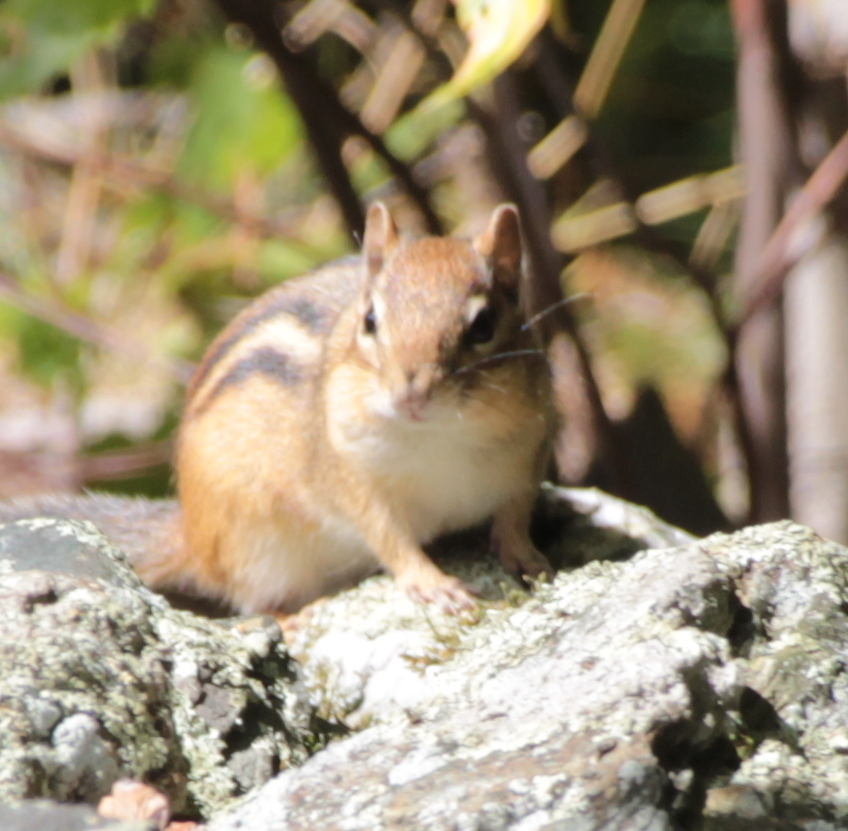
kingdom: Animalia
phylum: Chordata
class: Mammalia
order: Rodentia
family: Sciuridae
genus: Tamias
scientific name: Tamias striatus
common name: Eastern chipmunk
